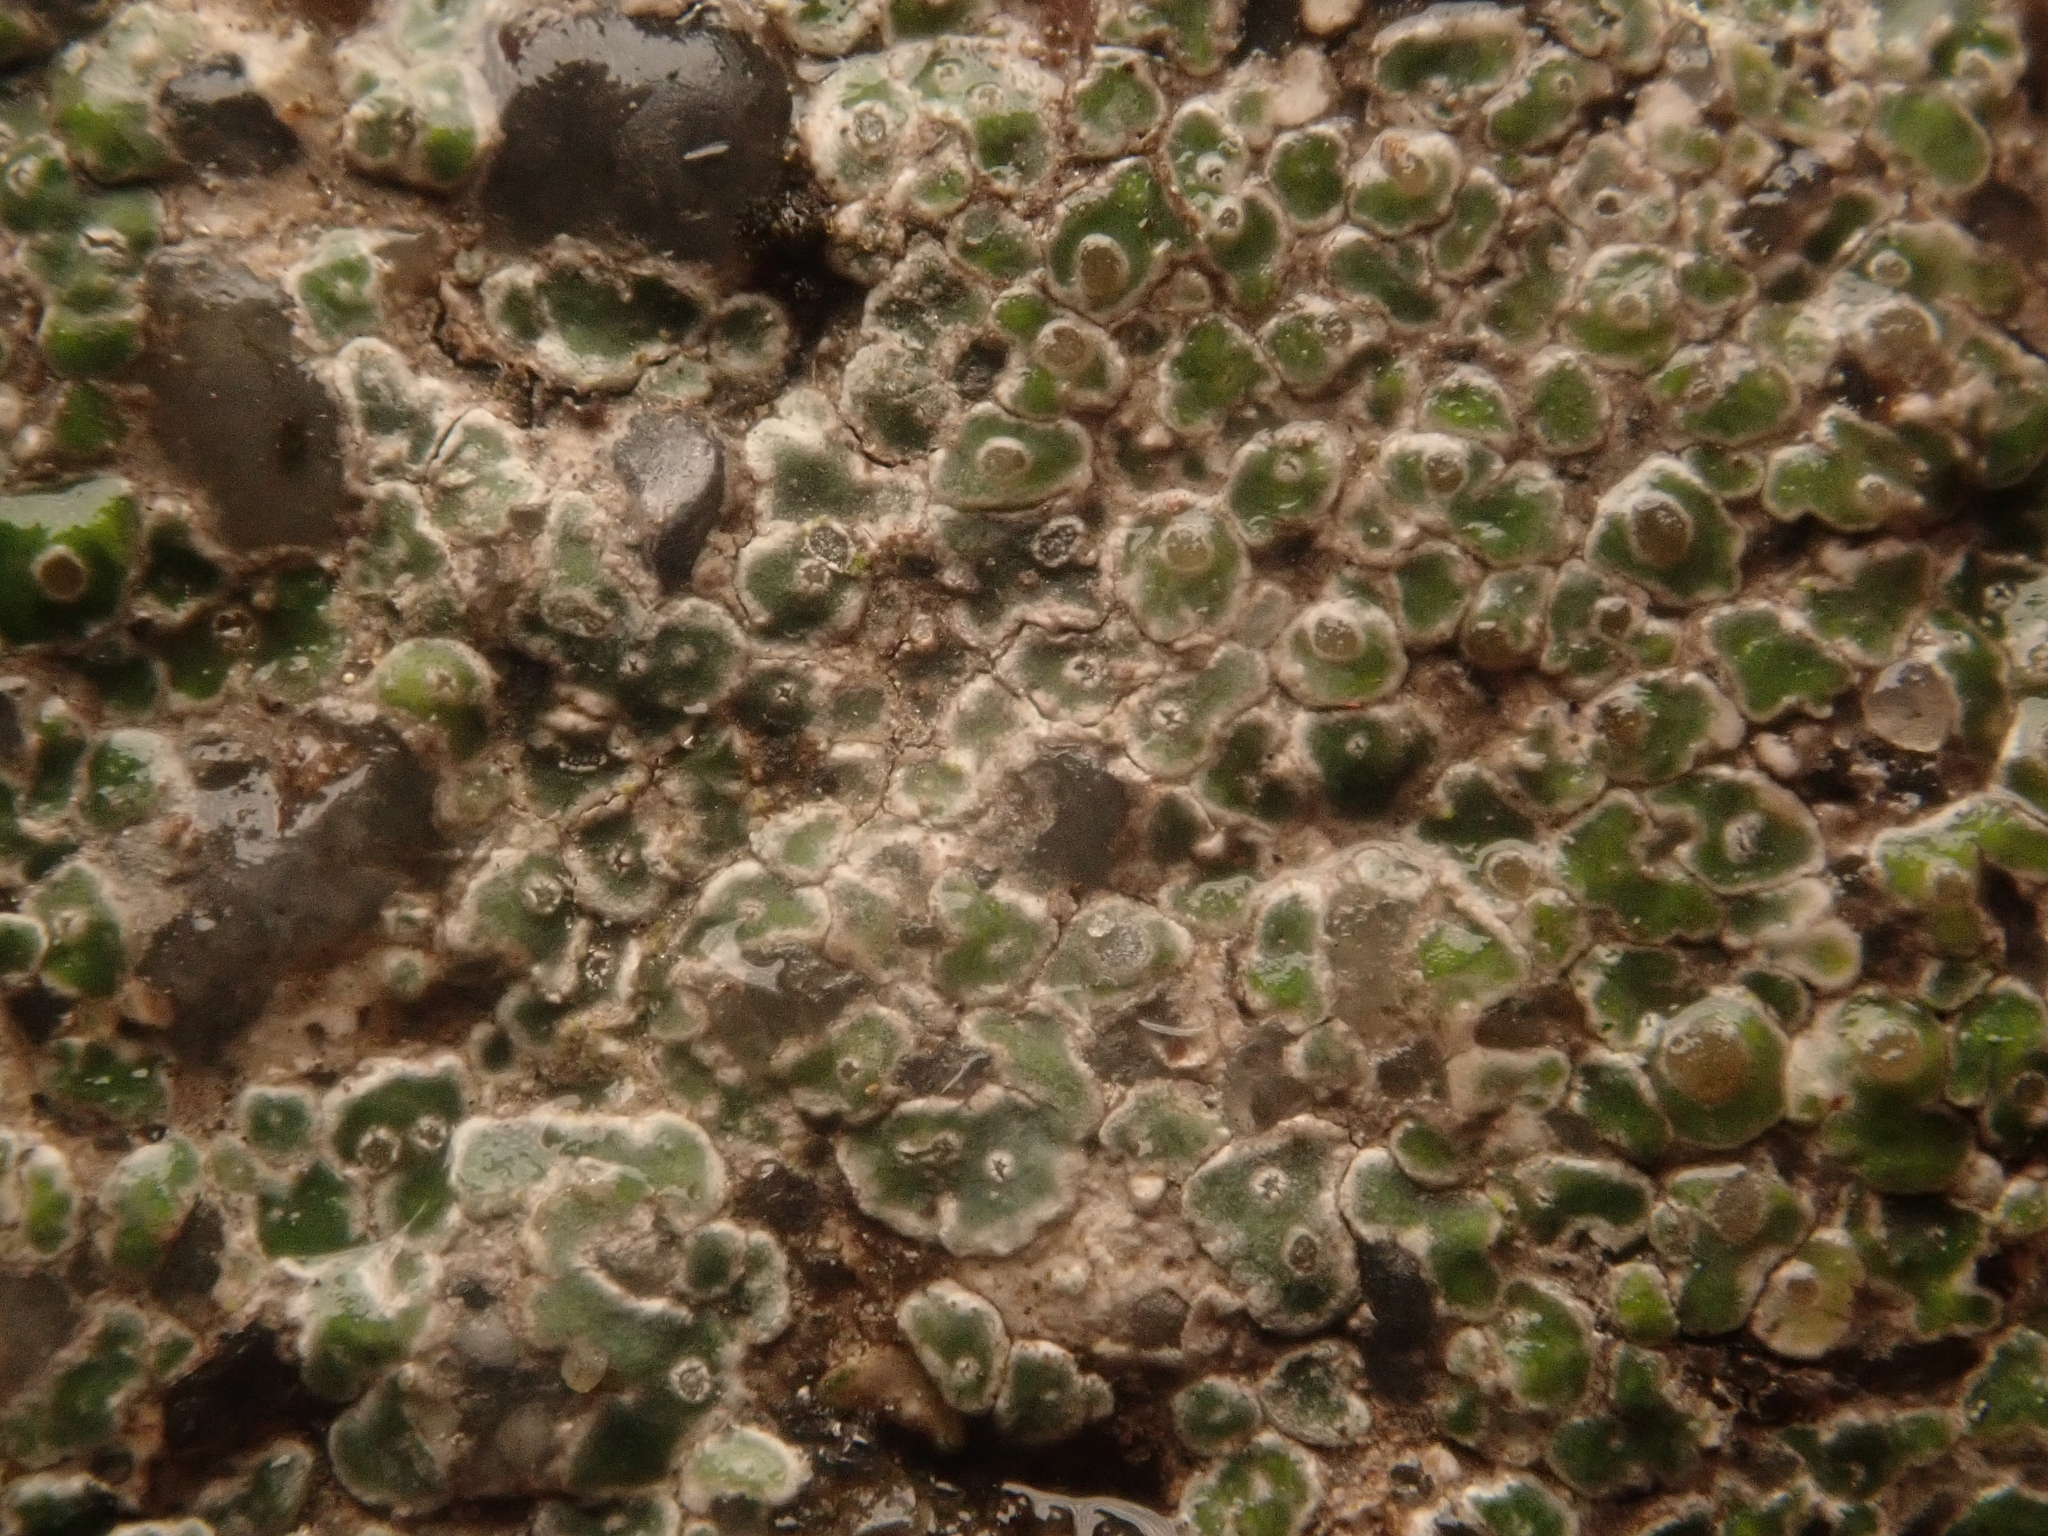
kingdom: Fungi
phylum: Ascomycota
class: Lecanoromycetes
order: Pertusariales
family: Megasporaceae
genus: Circinaria
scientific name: Circinaria contorta
